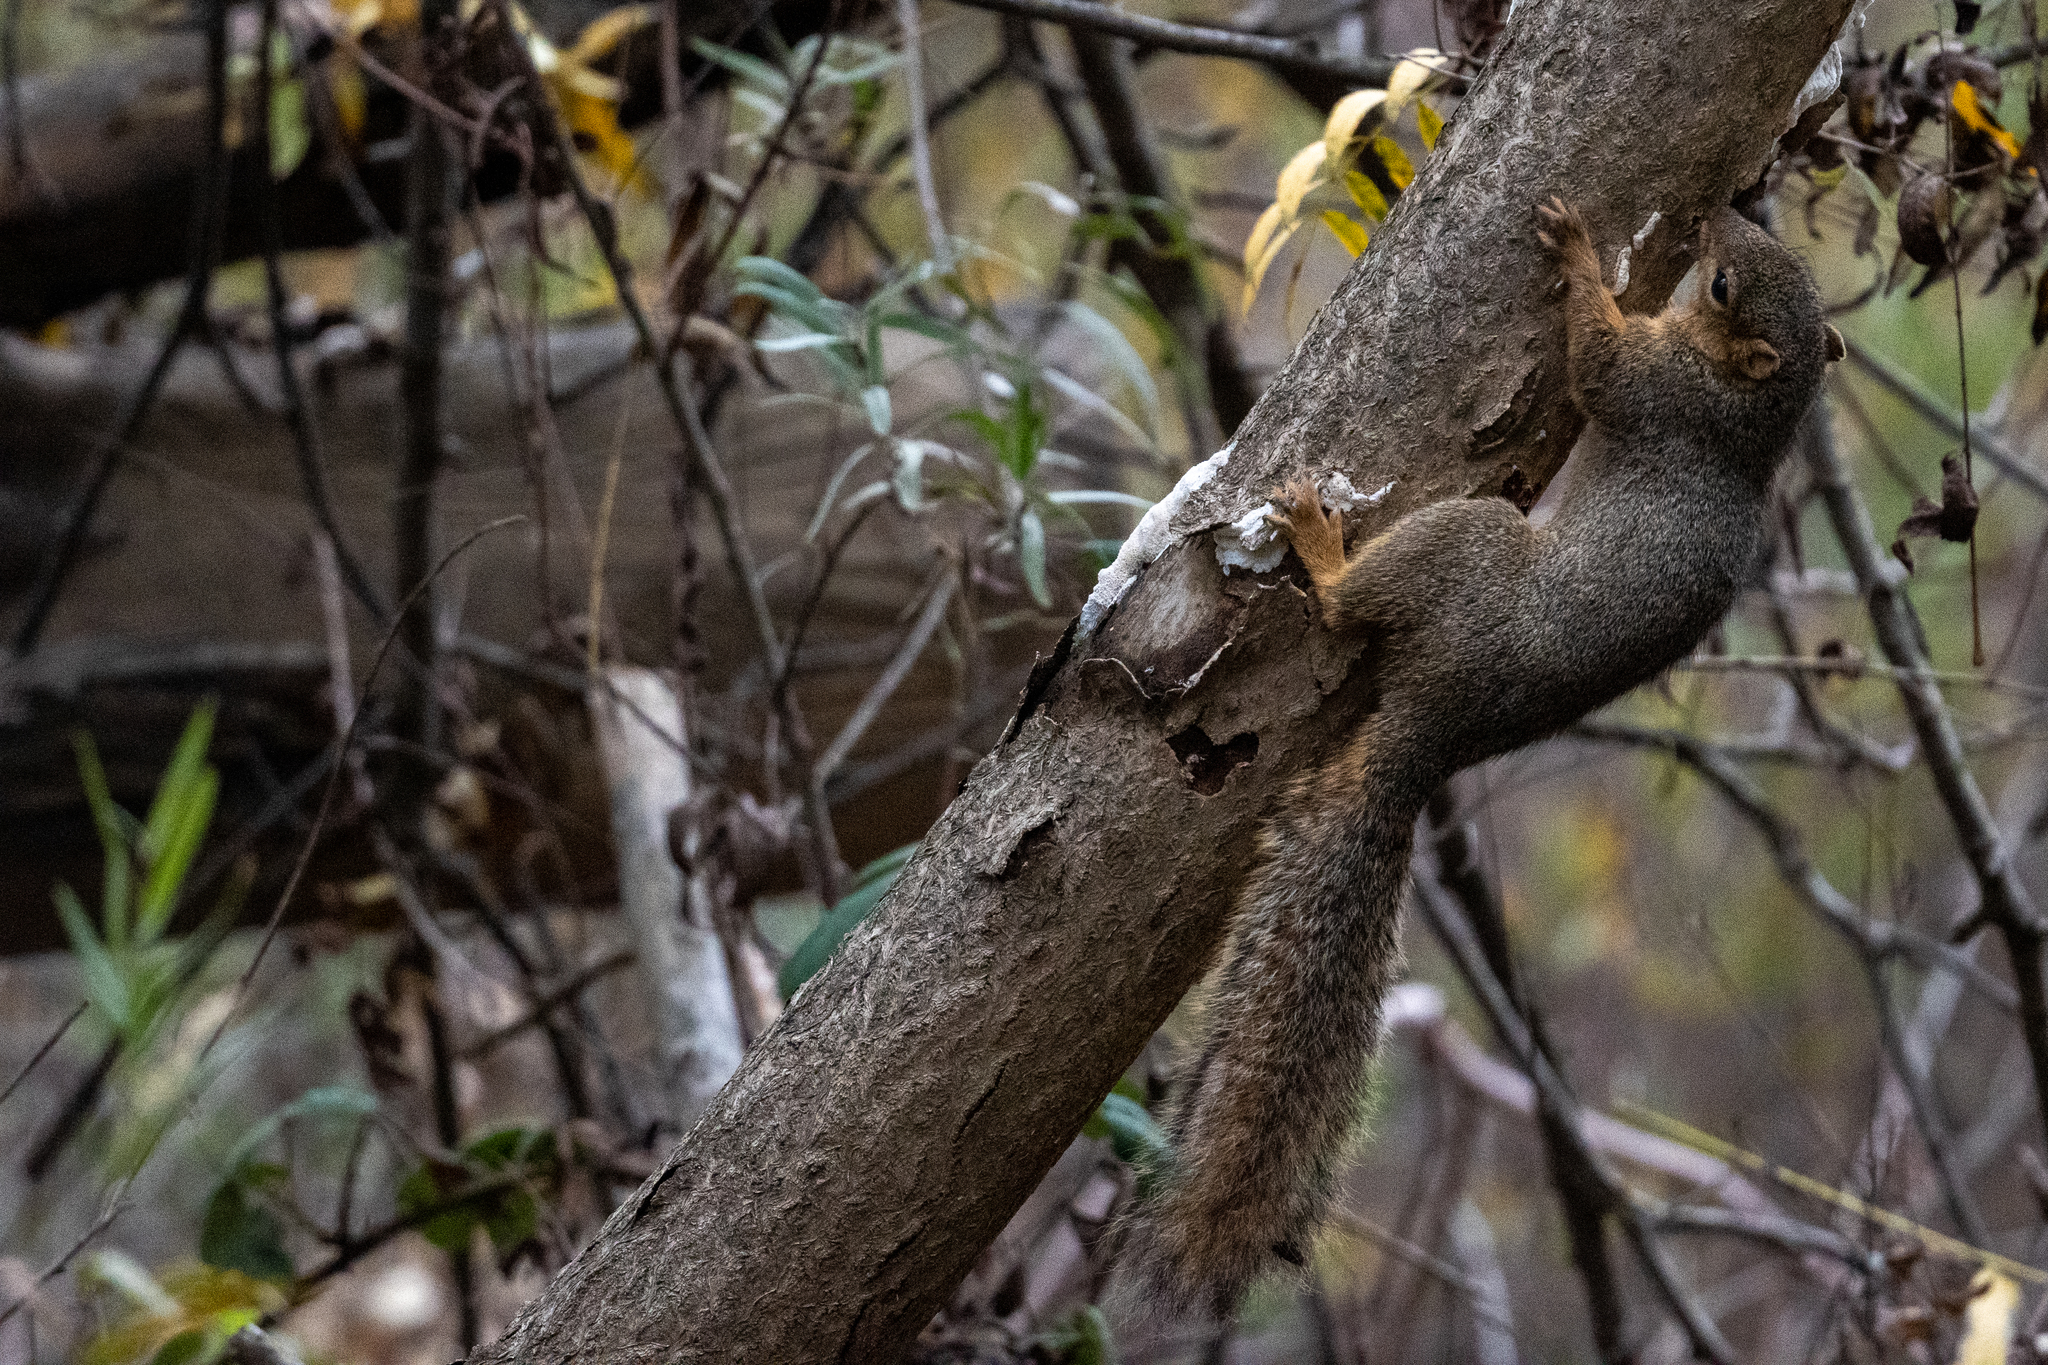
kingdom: Animalia
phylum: Chordata
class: Mammalia
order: Rodentia
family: Sciuridae
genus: Sciurus
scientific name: Sciurus niger
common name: Fox squirrel
